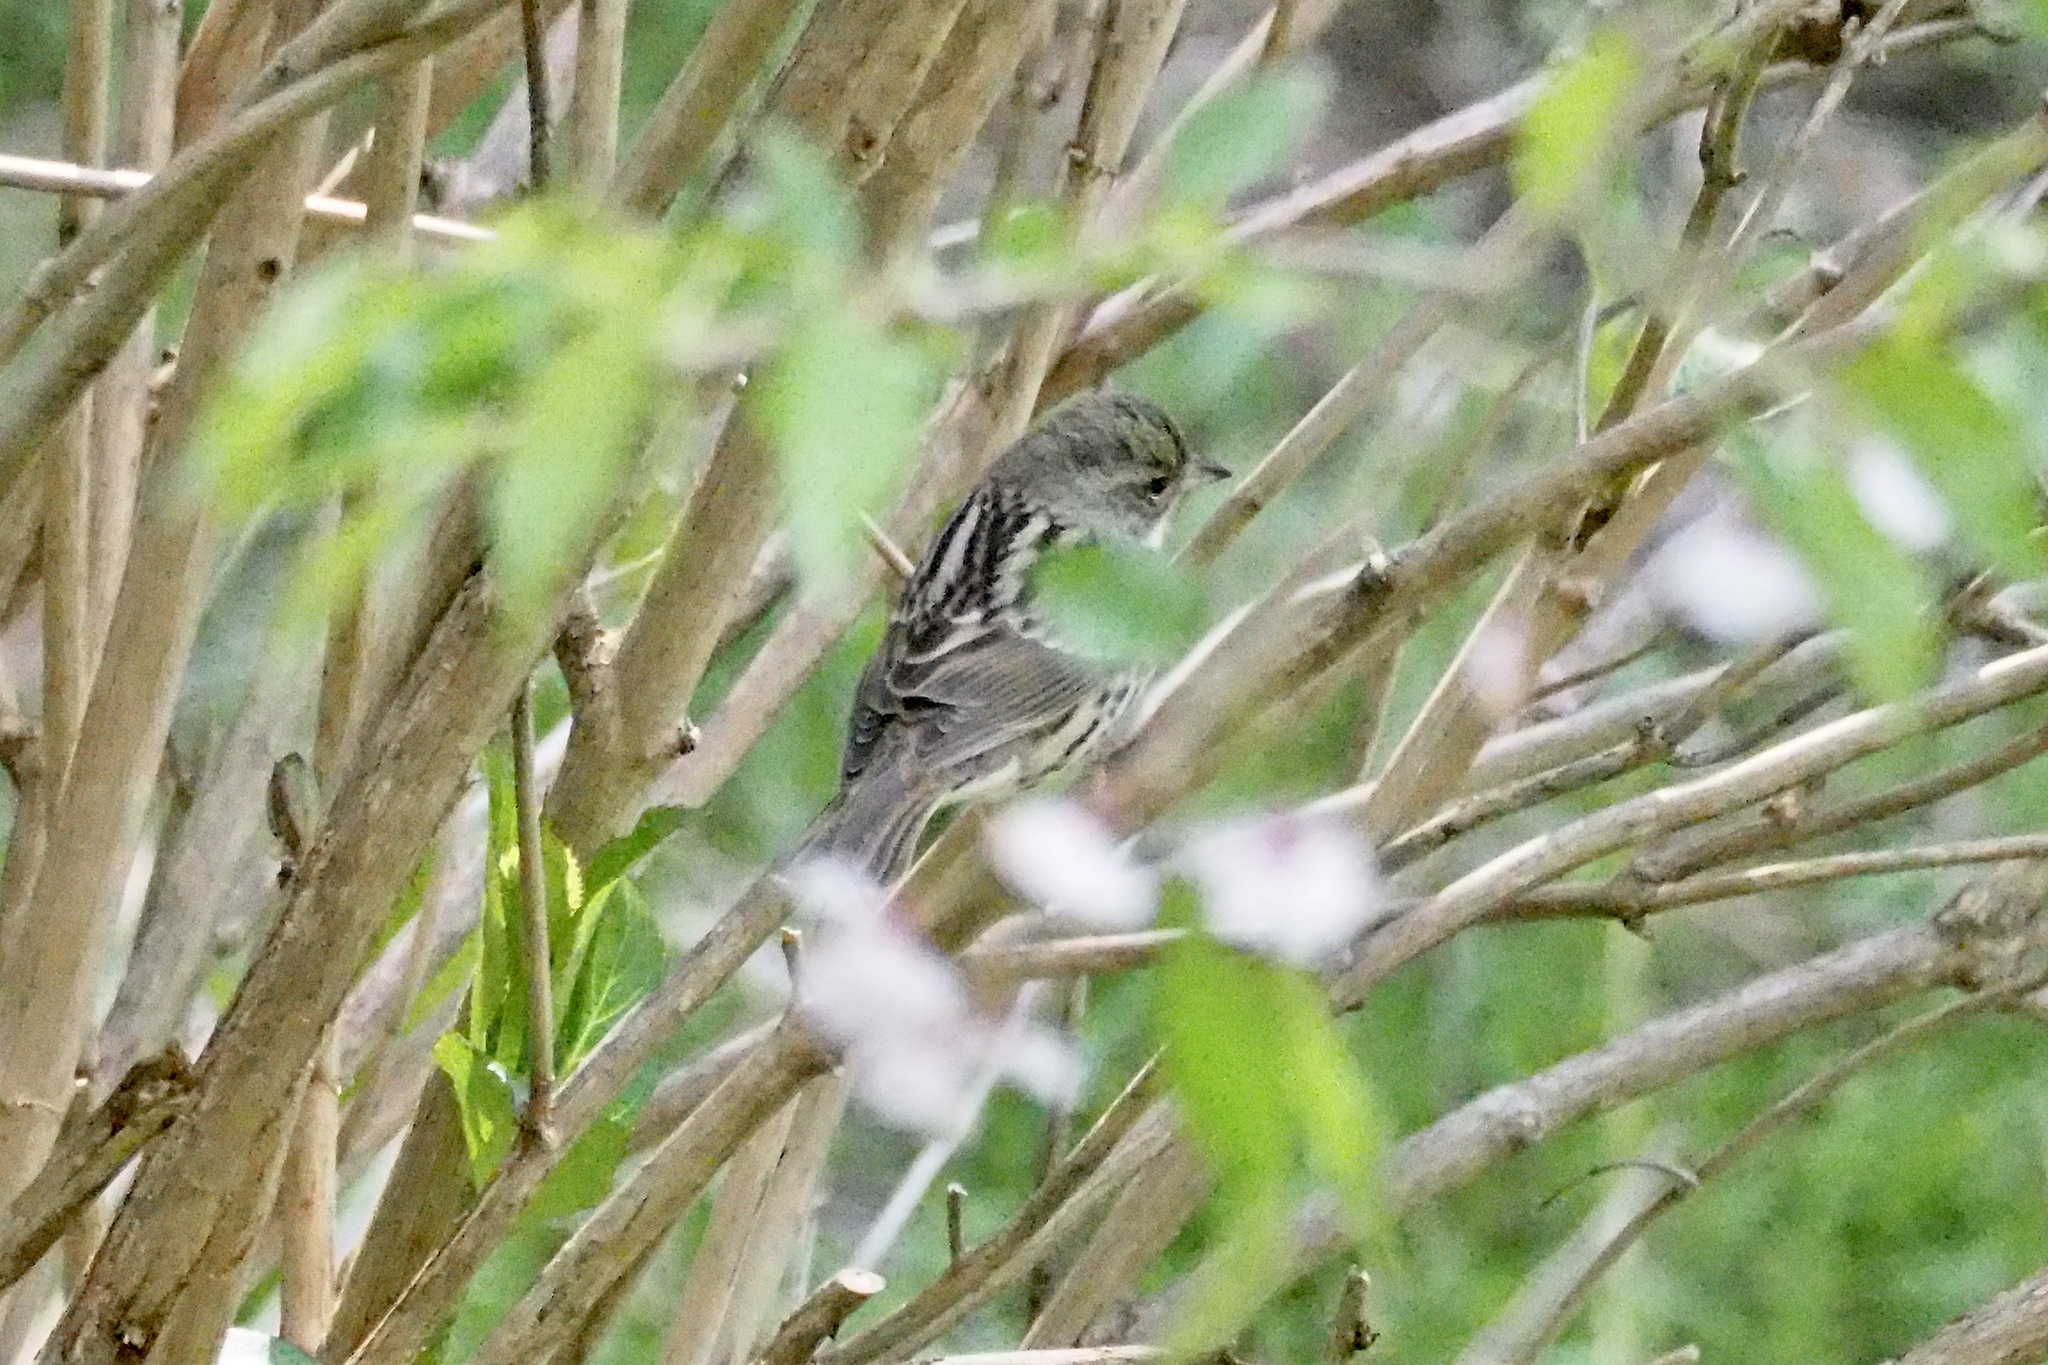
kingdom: Animalia
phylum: Chordata
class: Aves
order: Passeriformes
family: Emberizidae
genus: Emberiza
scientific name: Emberiza personata
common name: Masked bunting
